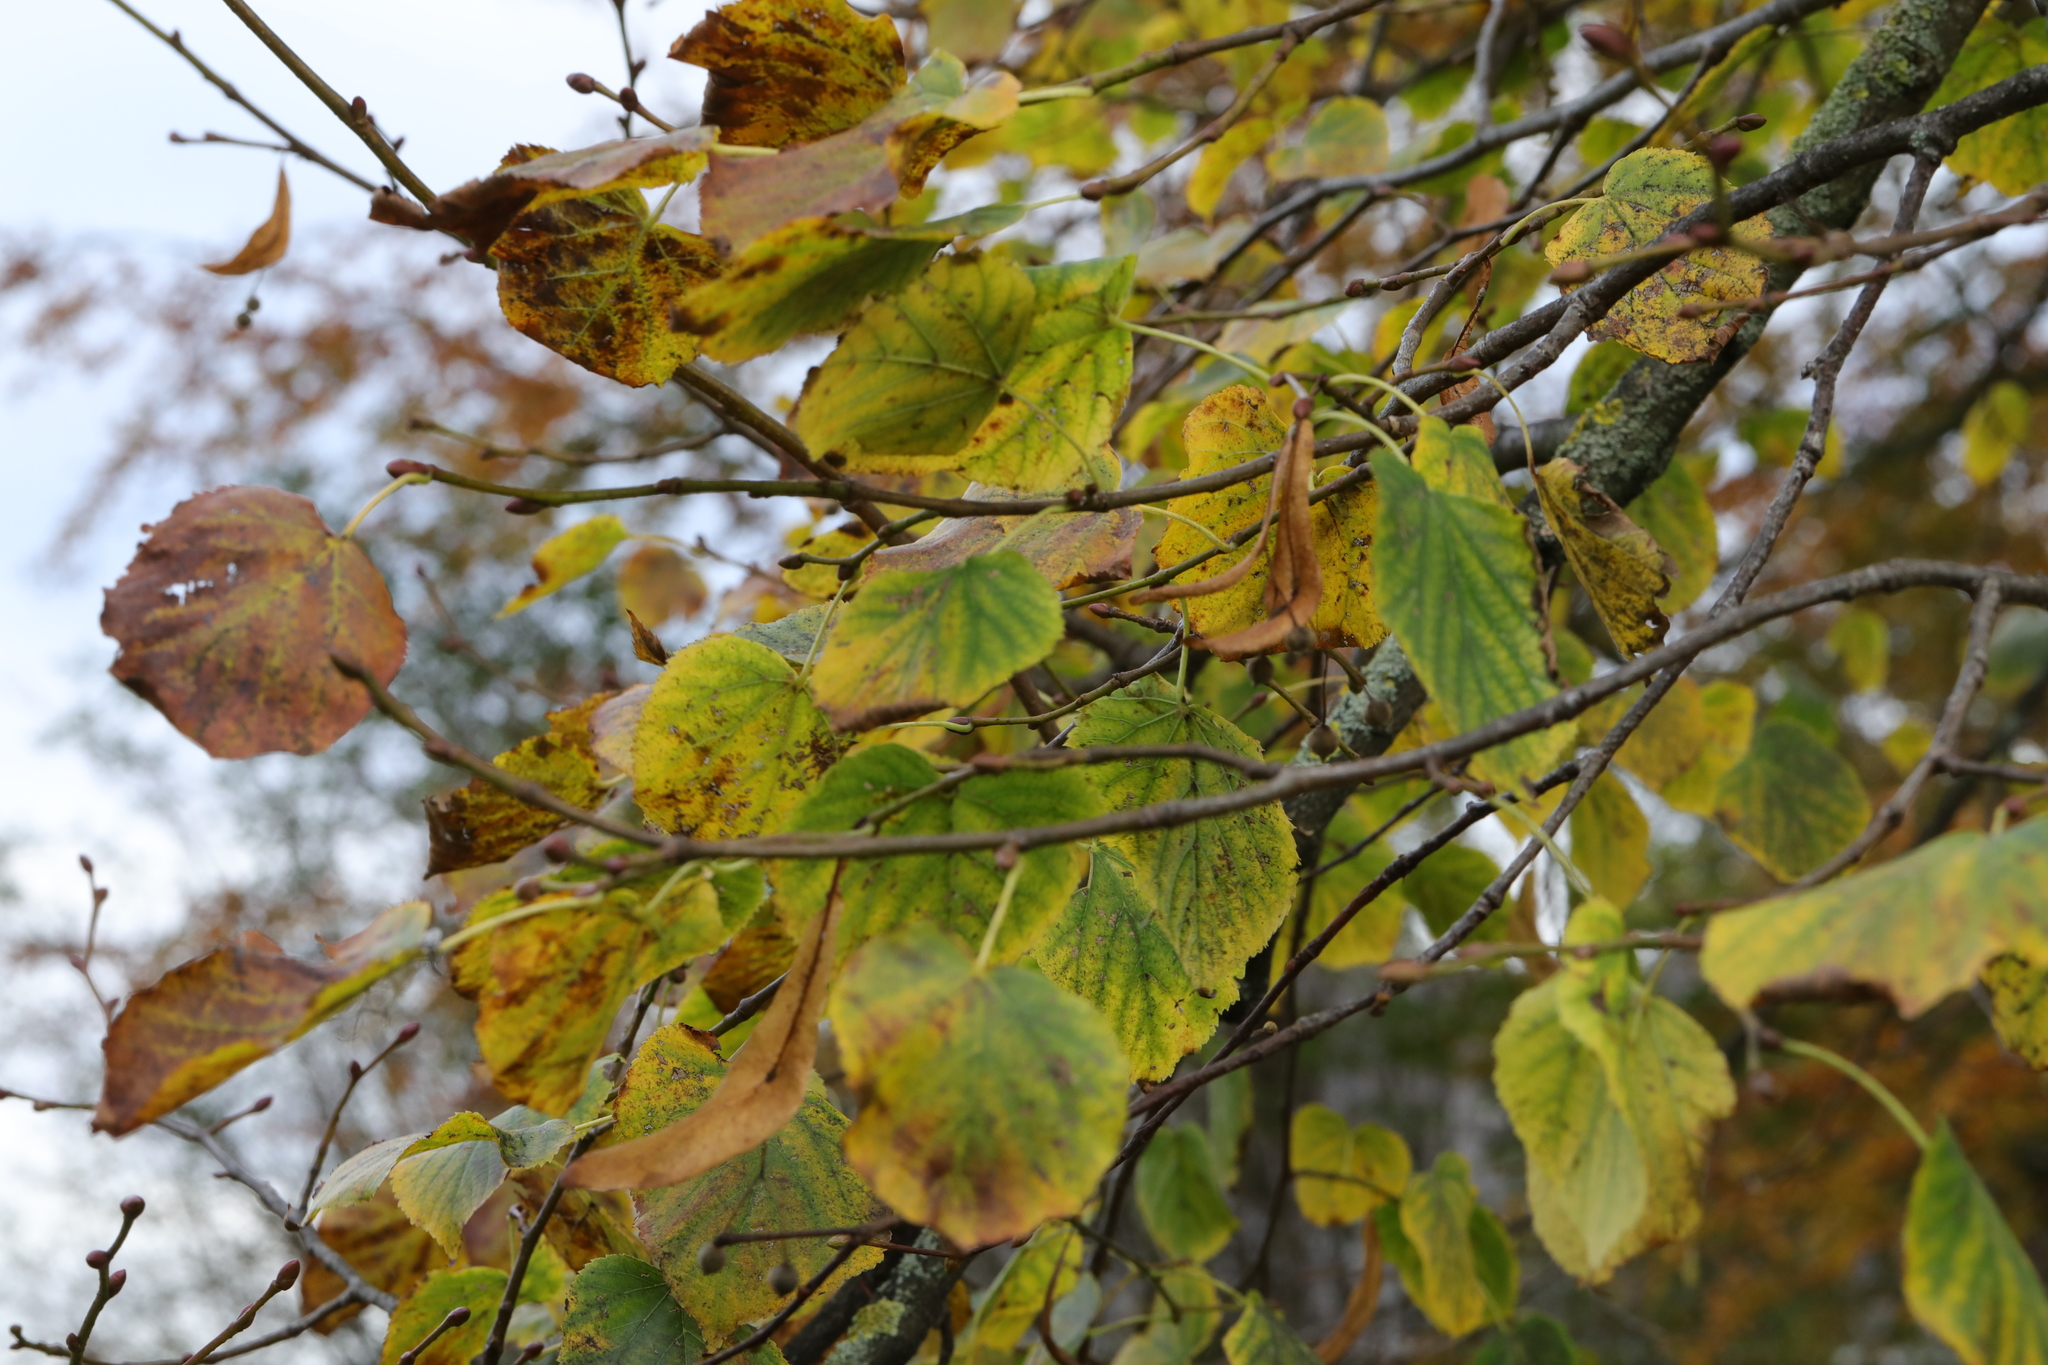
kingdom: Plantae
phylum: Tracheophyta
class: Magnoliopsida
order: Malvales
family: Malvaceae
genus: Tilia
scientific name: Tilia europaea
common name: European linden
